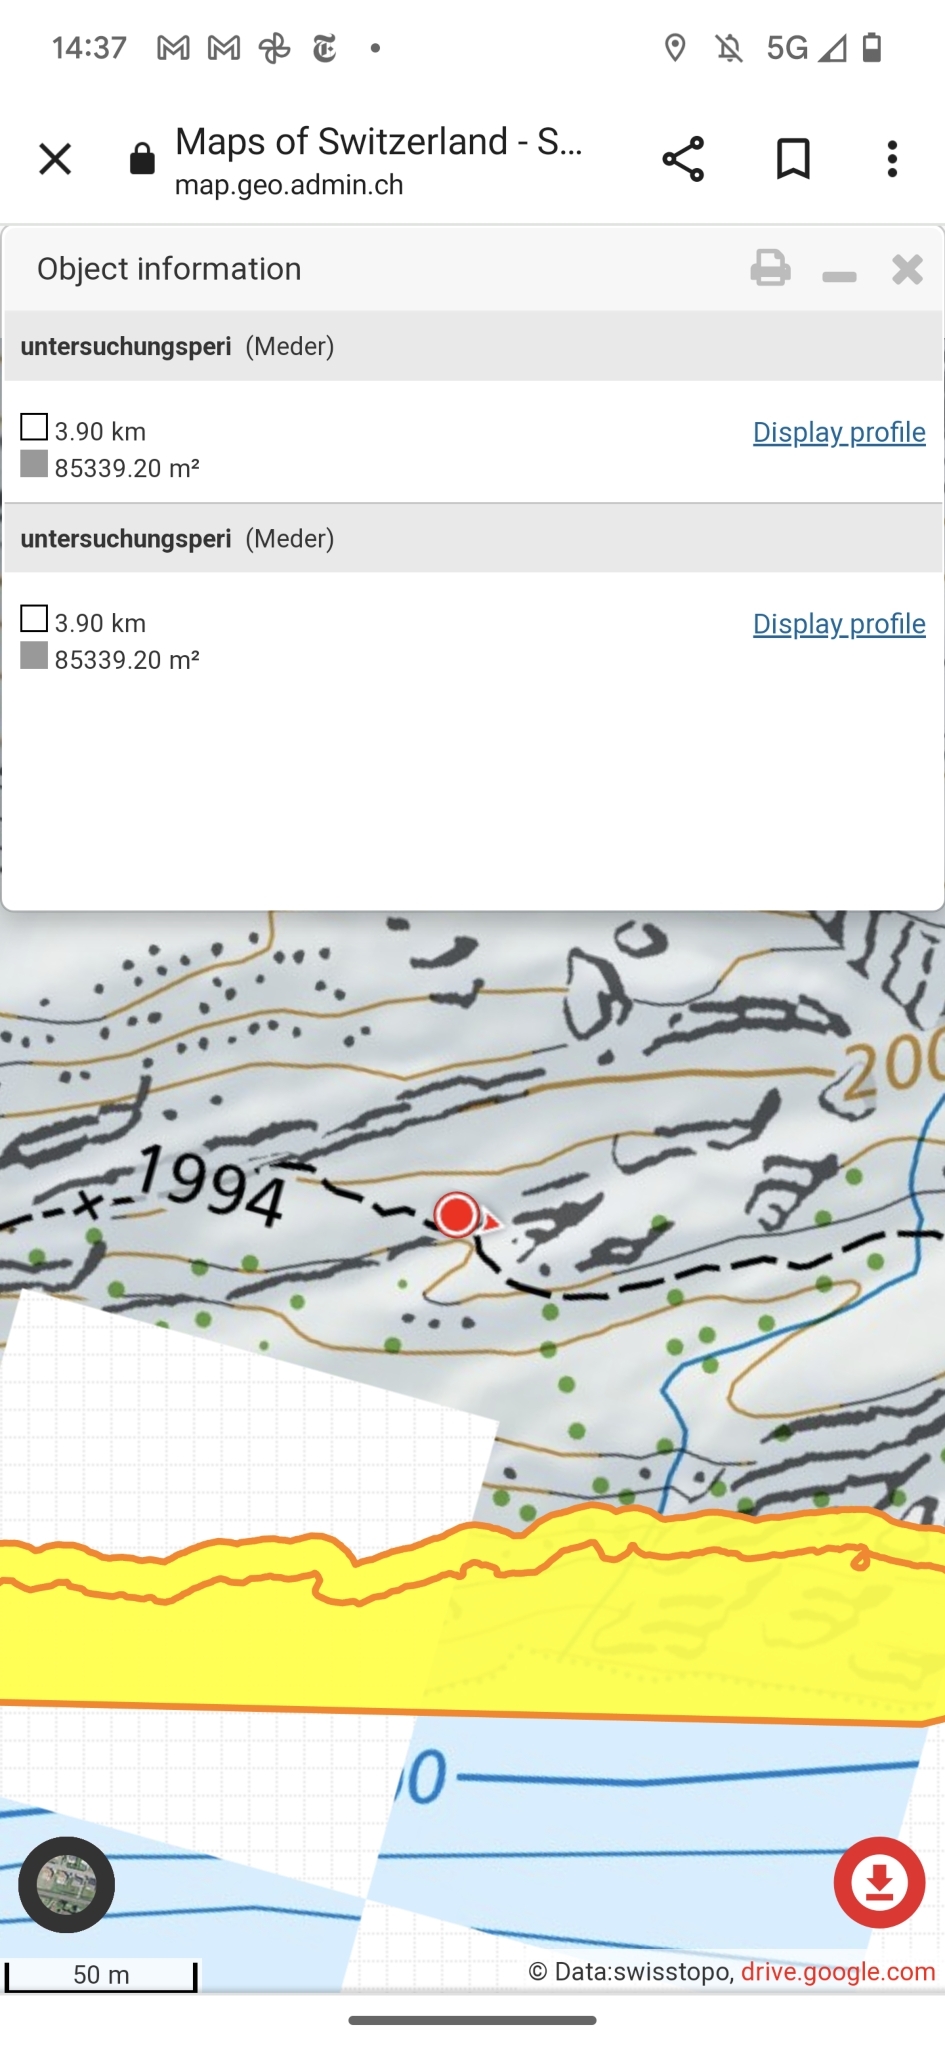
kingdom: Animalia
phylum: Arthropoda
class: Insecta
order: Hymenoptera
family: Formicidae
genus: Formica
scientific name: Formica
